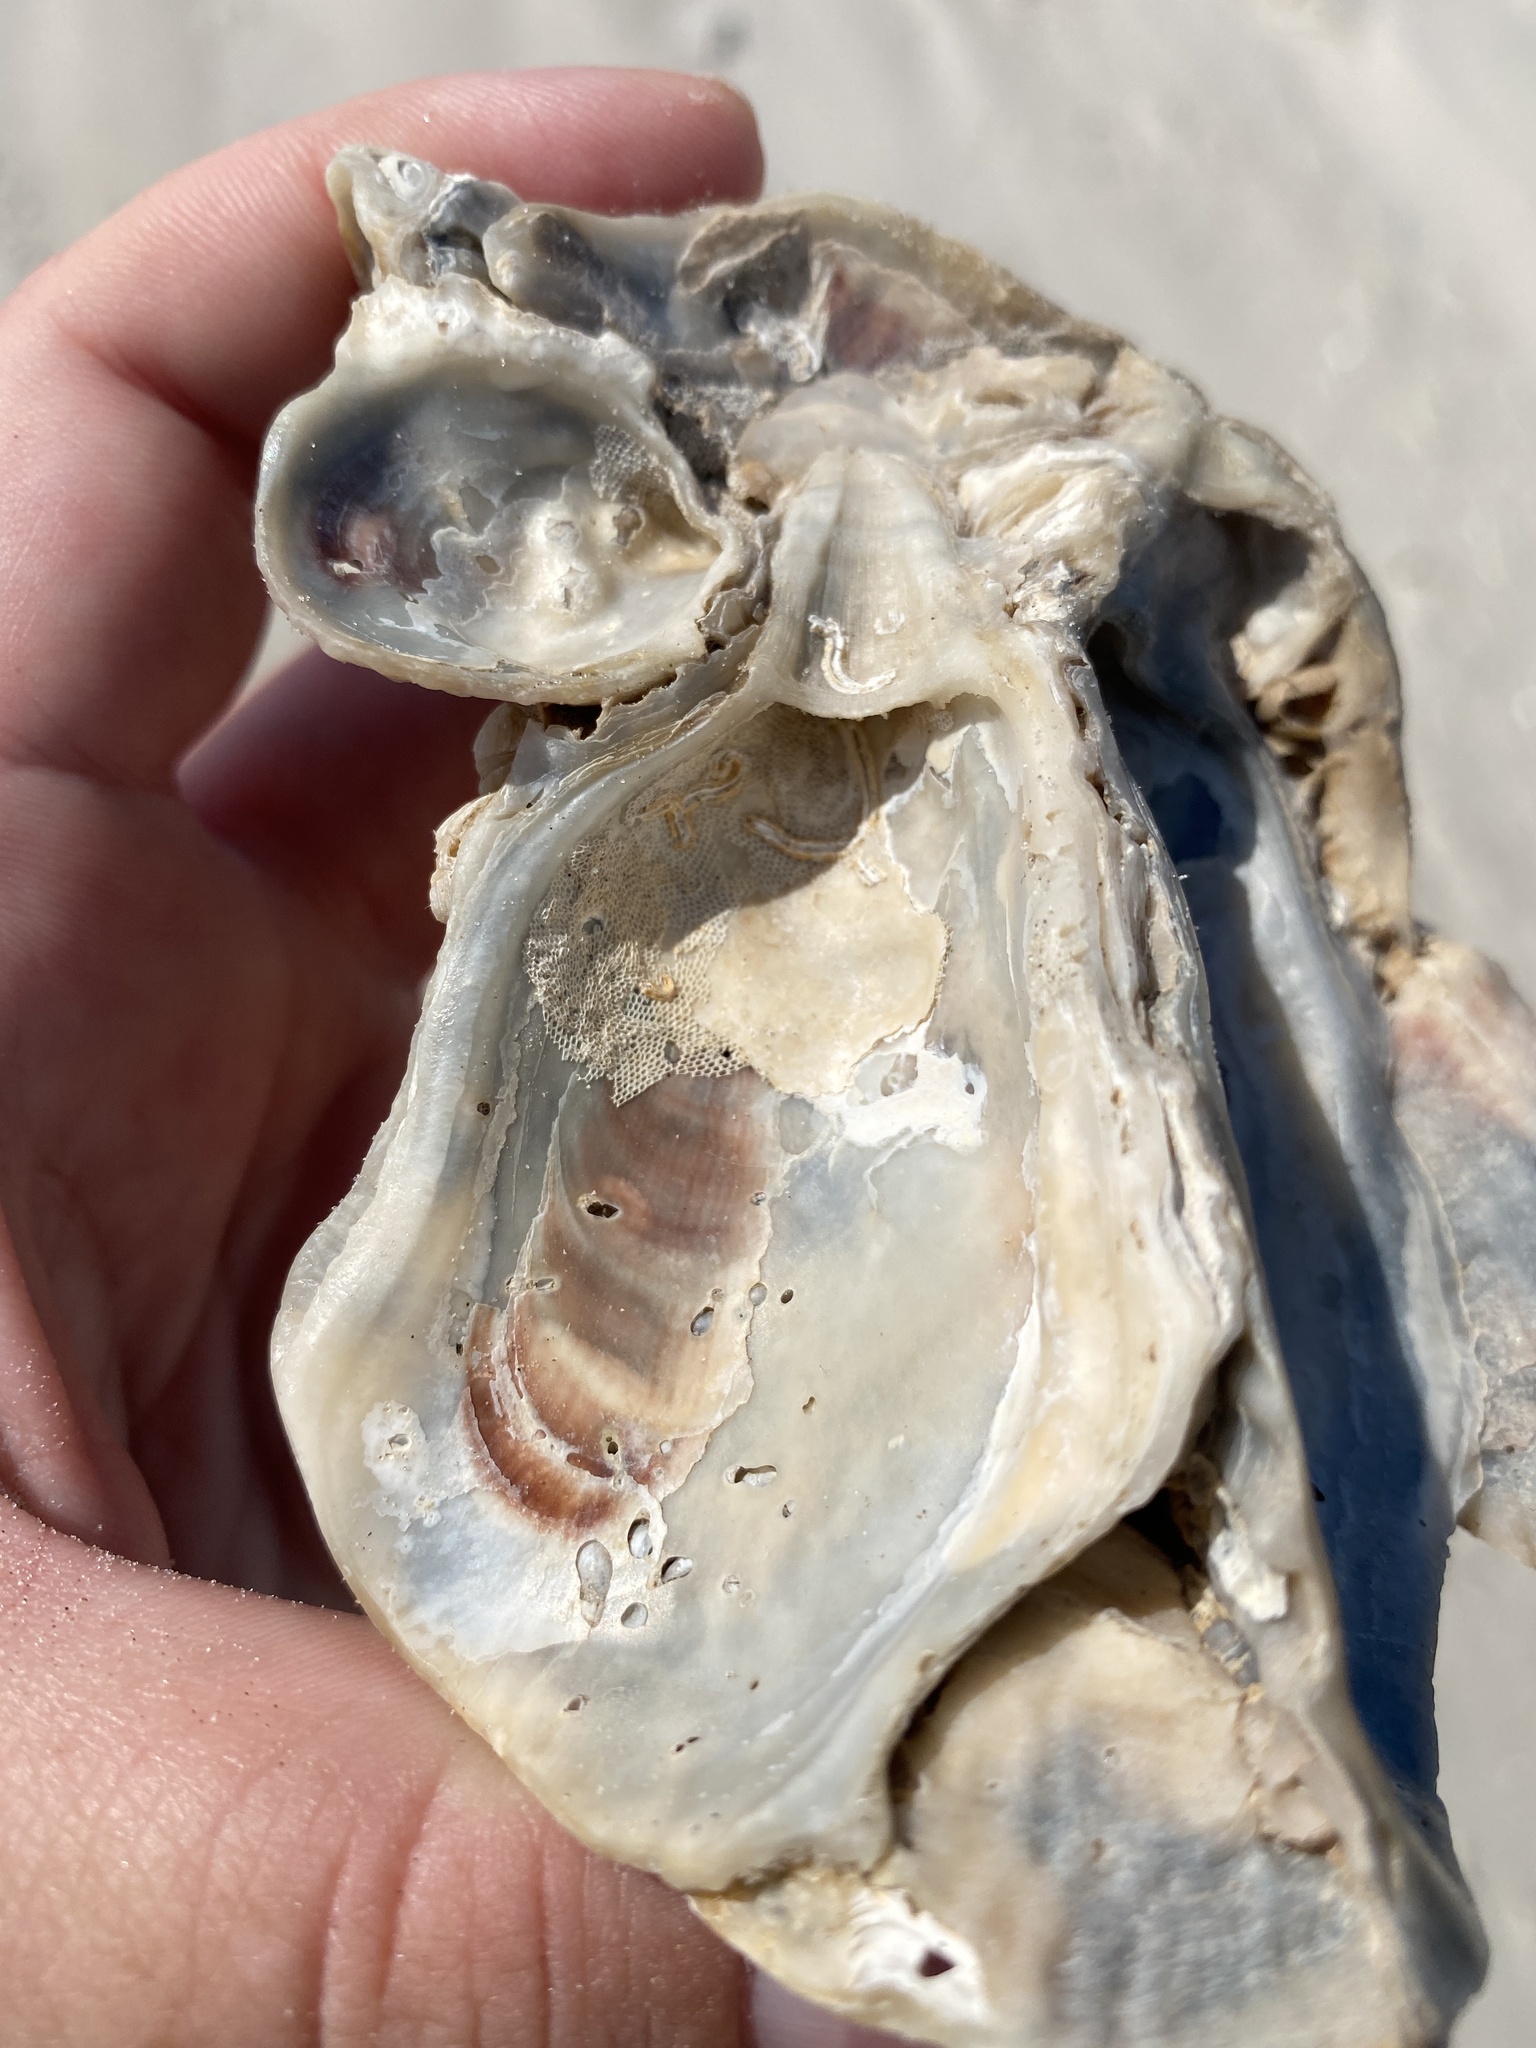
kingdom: Animalia
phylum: Mollusca
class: Bivalvia
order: Ostreida
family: Ostreidae
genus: Crassostrea
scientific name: Crassostrea virginica
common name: American oyster
